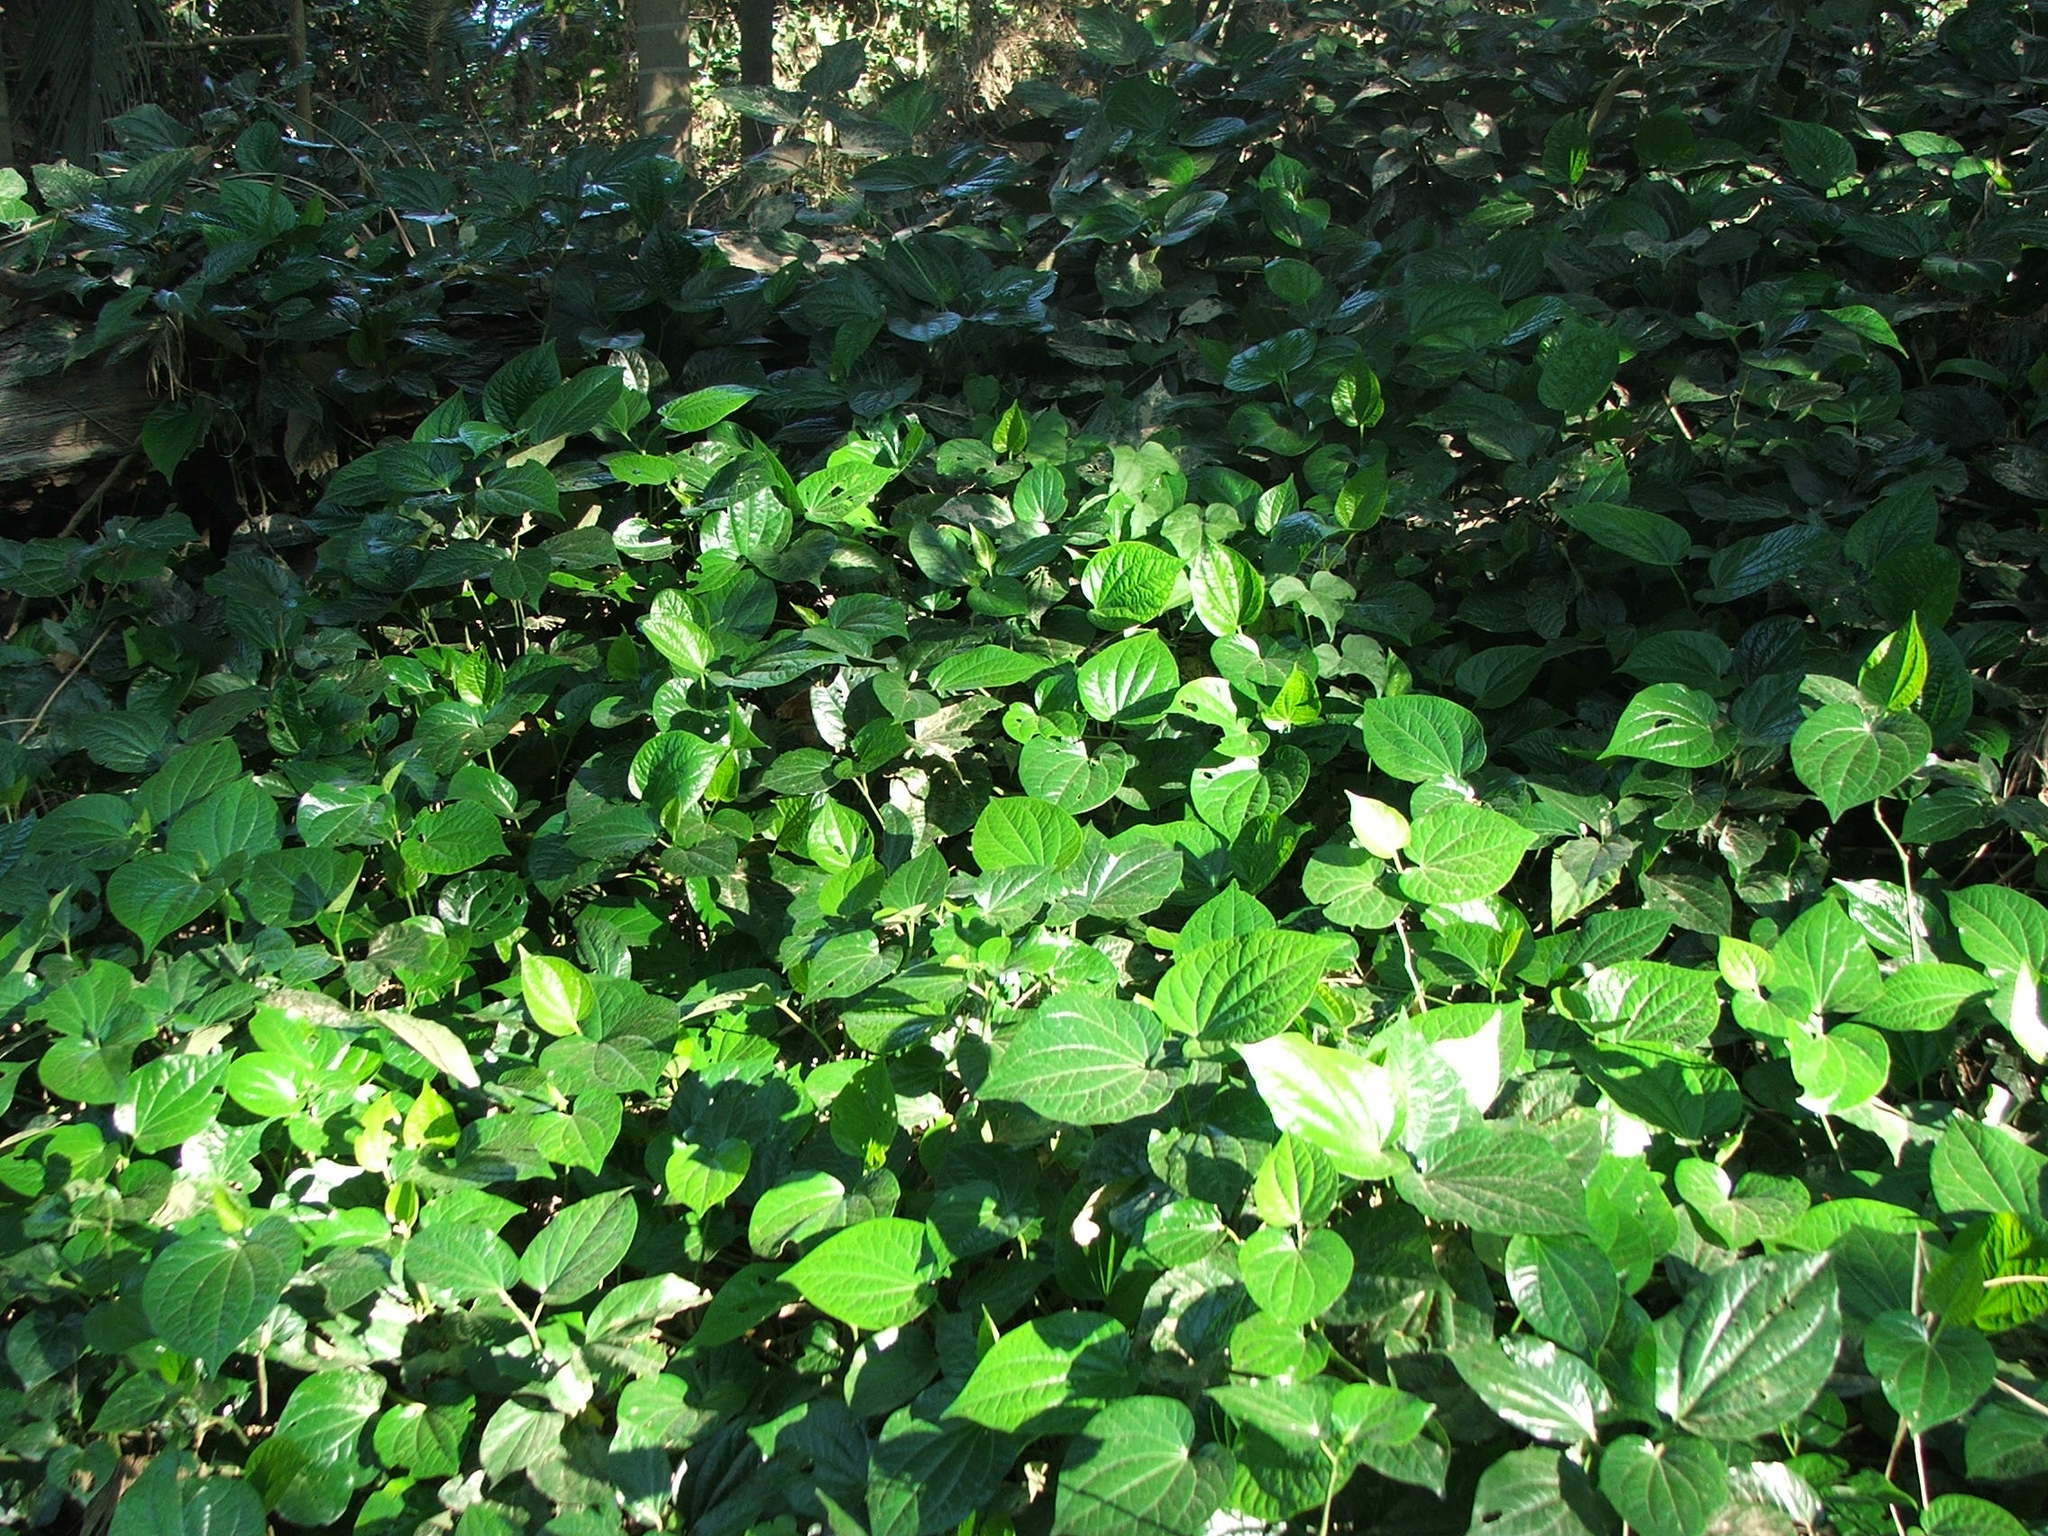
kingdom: Plantae
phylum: Tracheophyta
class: Magnoliopsida
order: Piperales
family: Piperaceae
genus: Piper
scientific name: Piper sarmentosum
